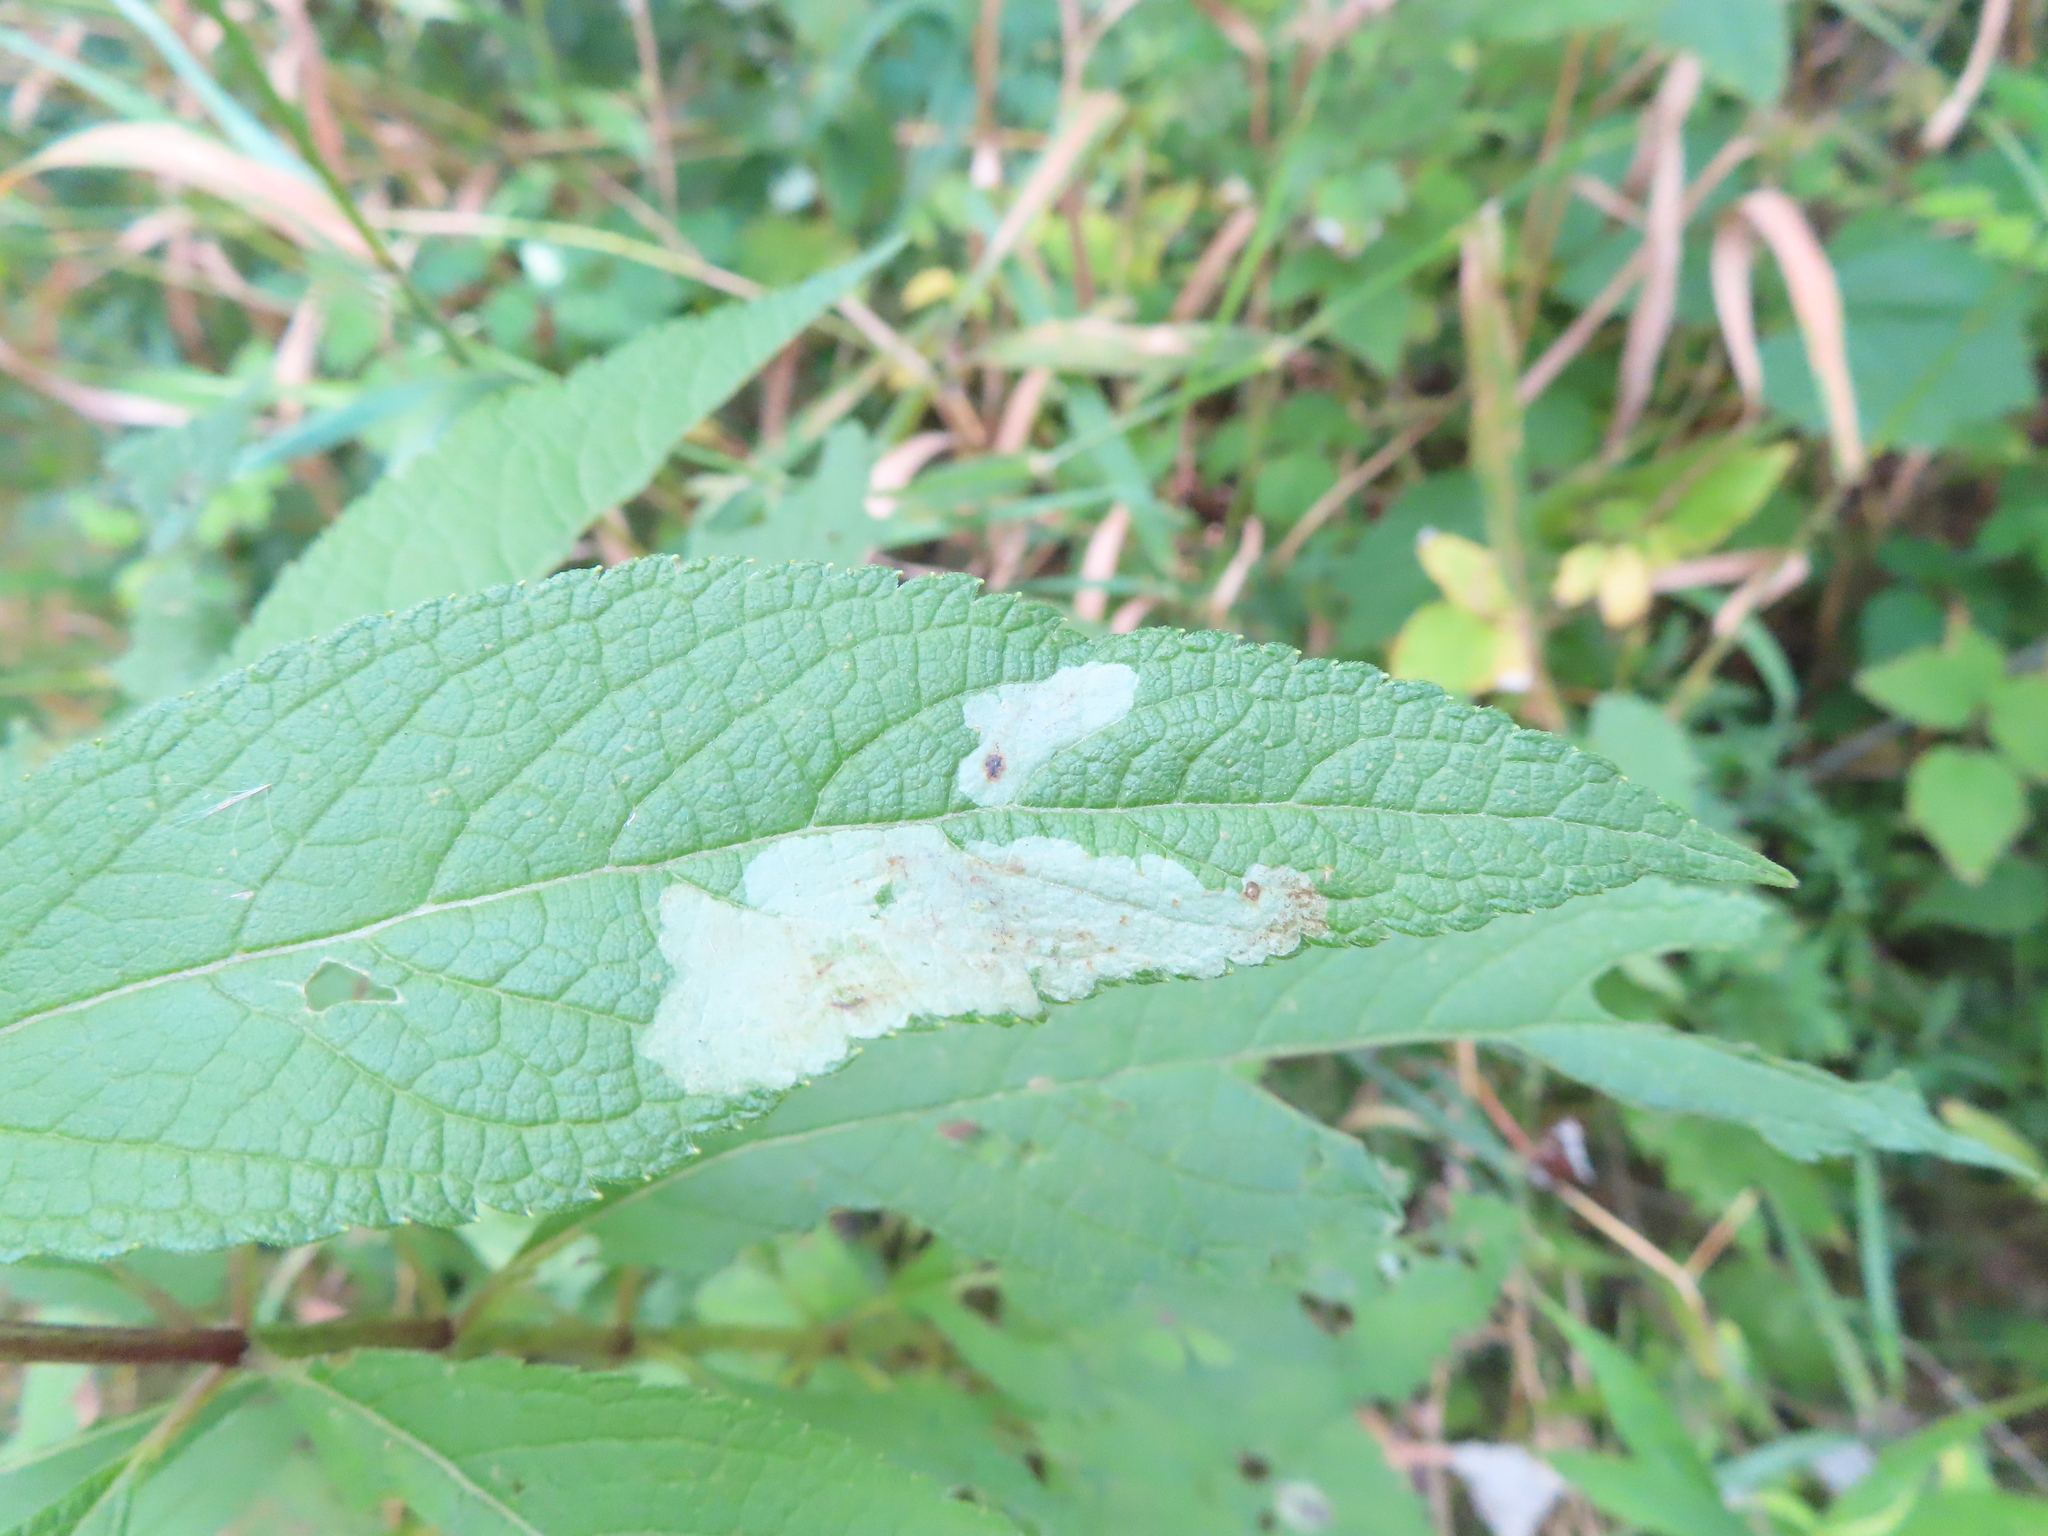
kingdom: Animalia
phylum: Arthropoda
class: Insecta
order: Diptera
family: Agromyzidae
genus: Calycomyza
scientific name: Calycomyza flavinotum
